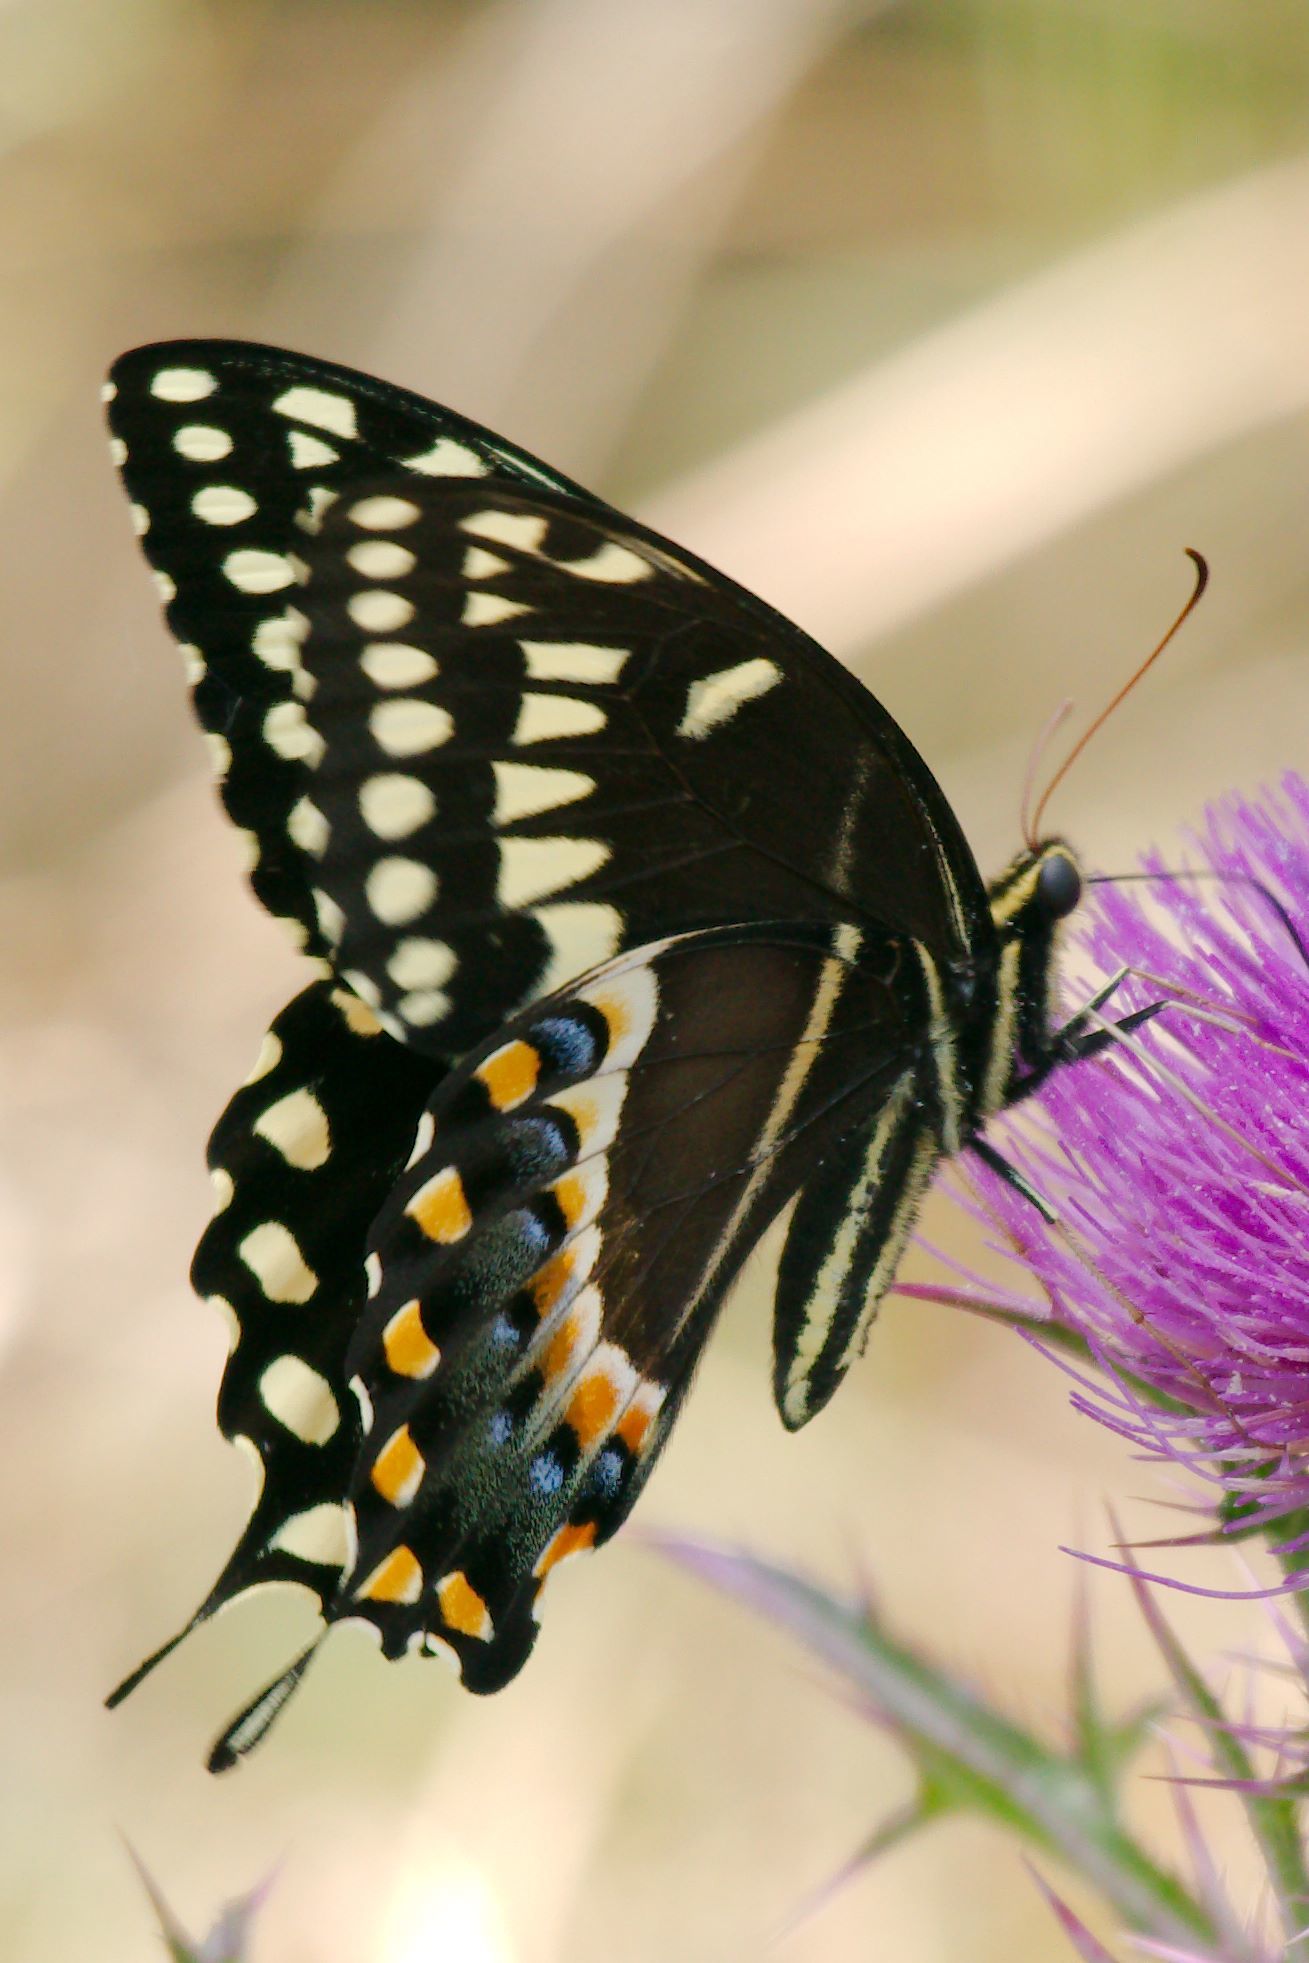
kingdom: Animalia
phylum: Arthropoda
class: Insecta
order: Lepidoptera
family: Papilionidae
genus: Papilio
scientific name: Papilio palamedes
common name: Palamedes swallowtail
